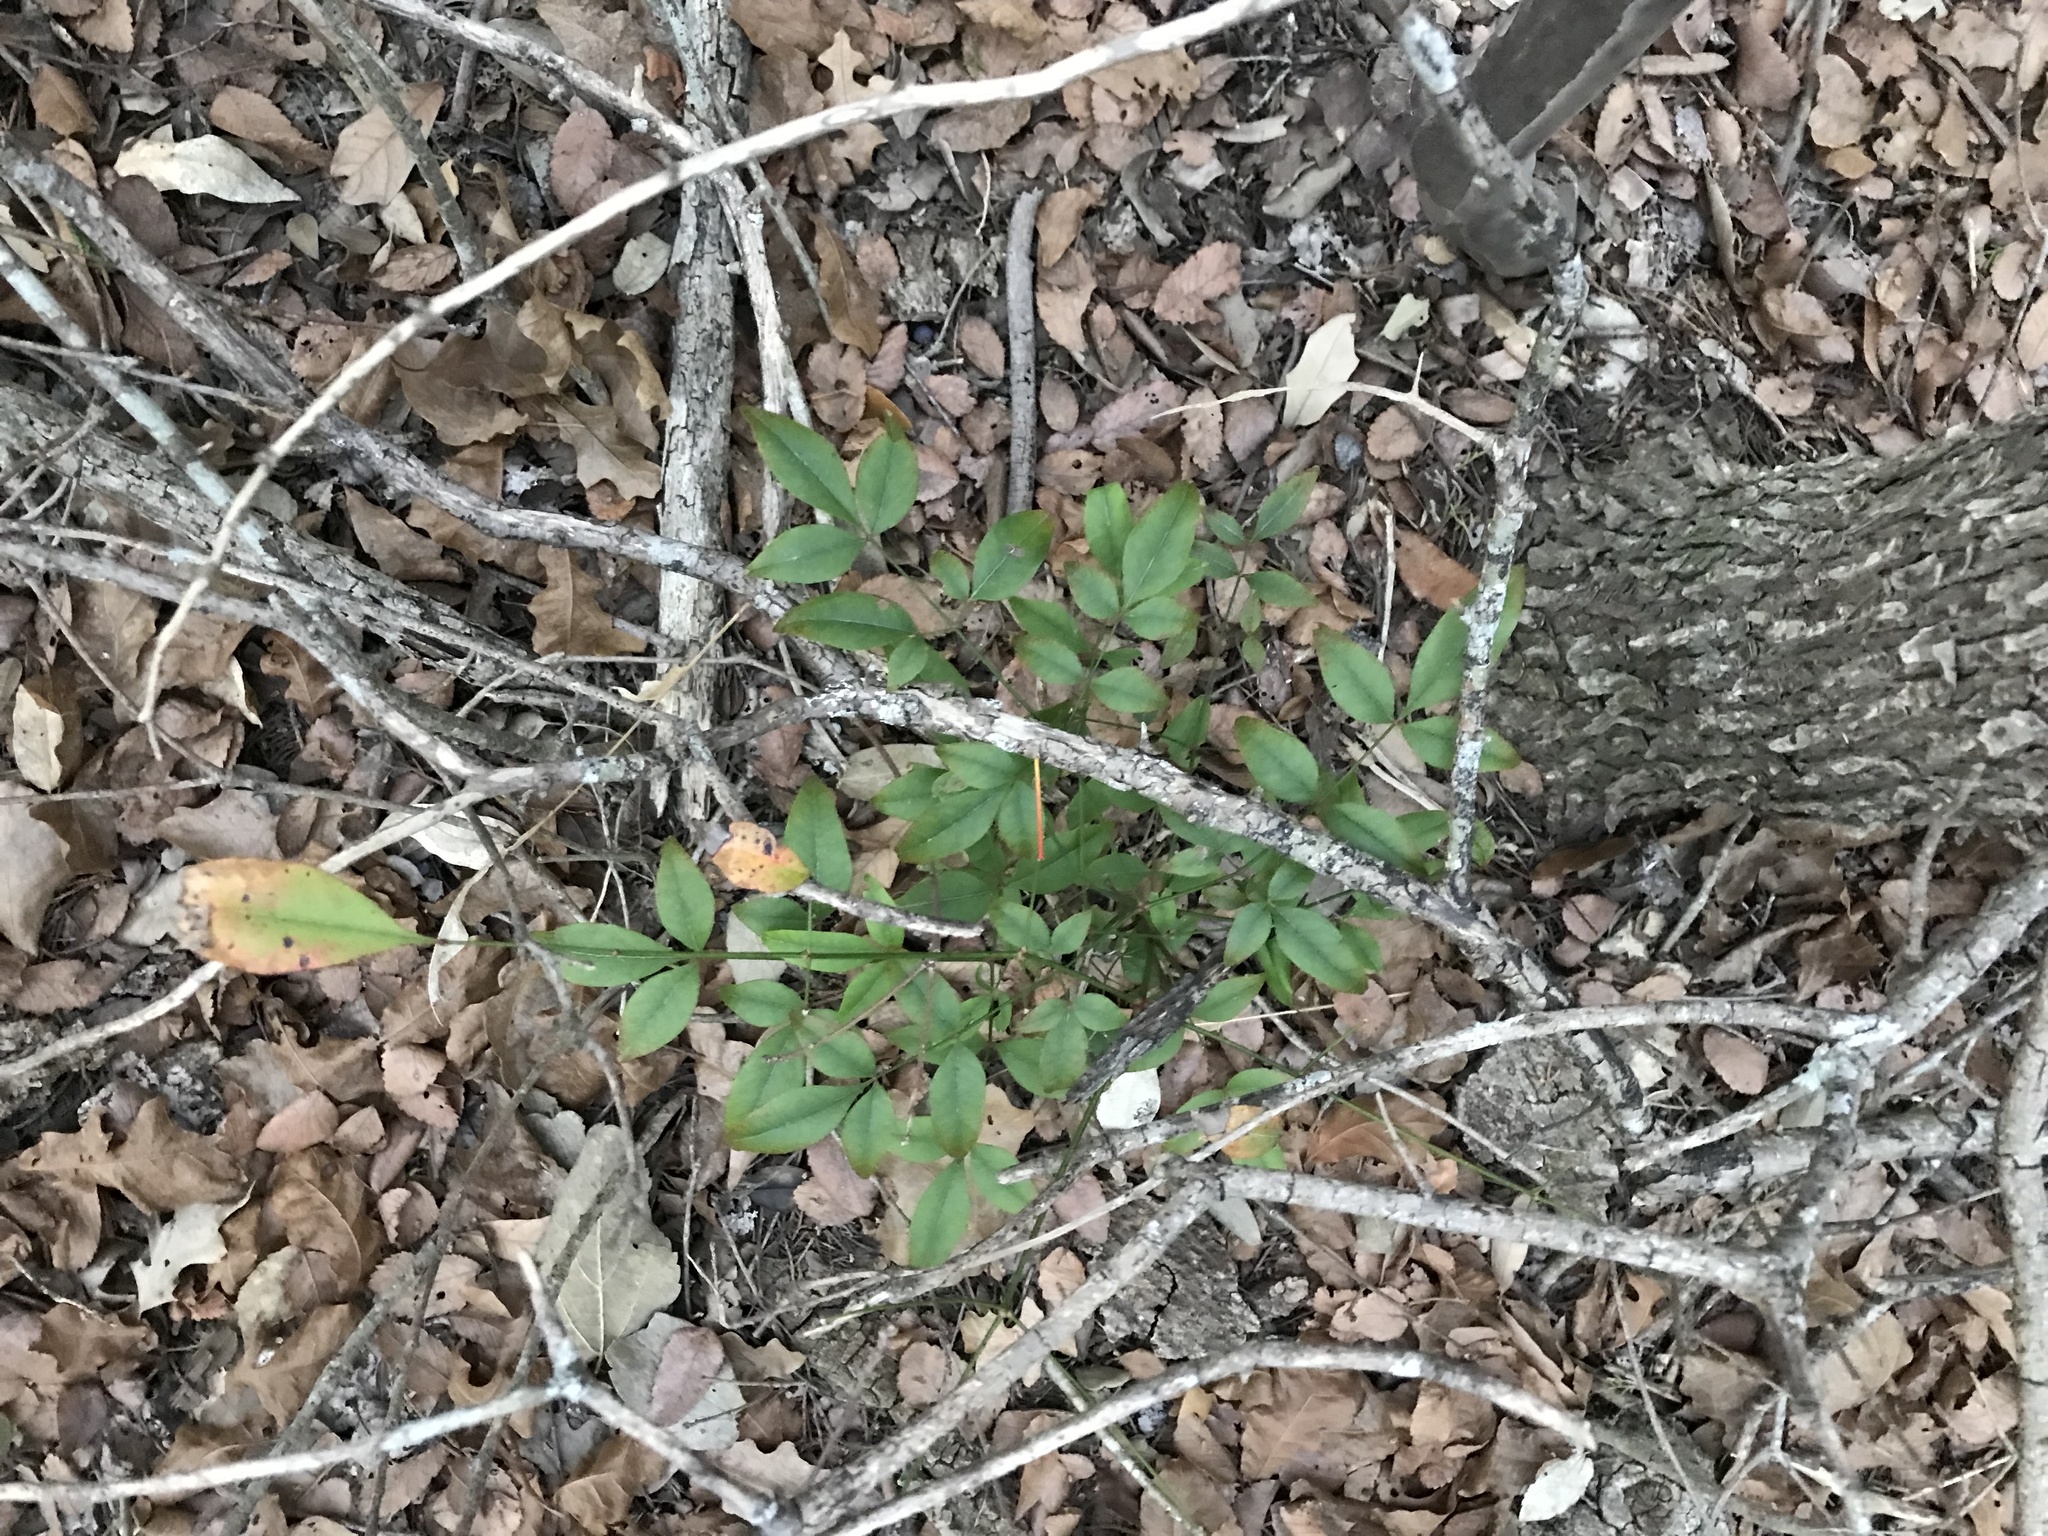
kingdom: Plantae
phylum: Tracheophyta
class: Magnoliopsida
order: Ranunculales
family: Berberidaceae
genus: Nandina
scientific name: Nandina domestica
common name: Sacred bamboo
